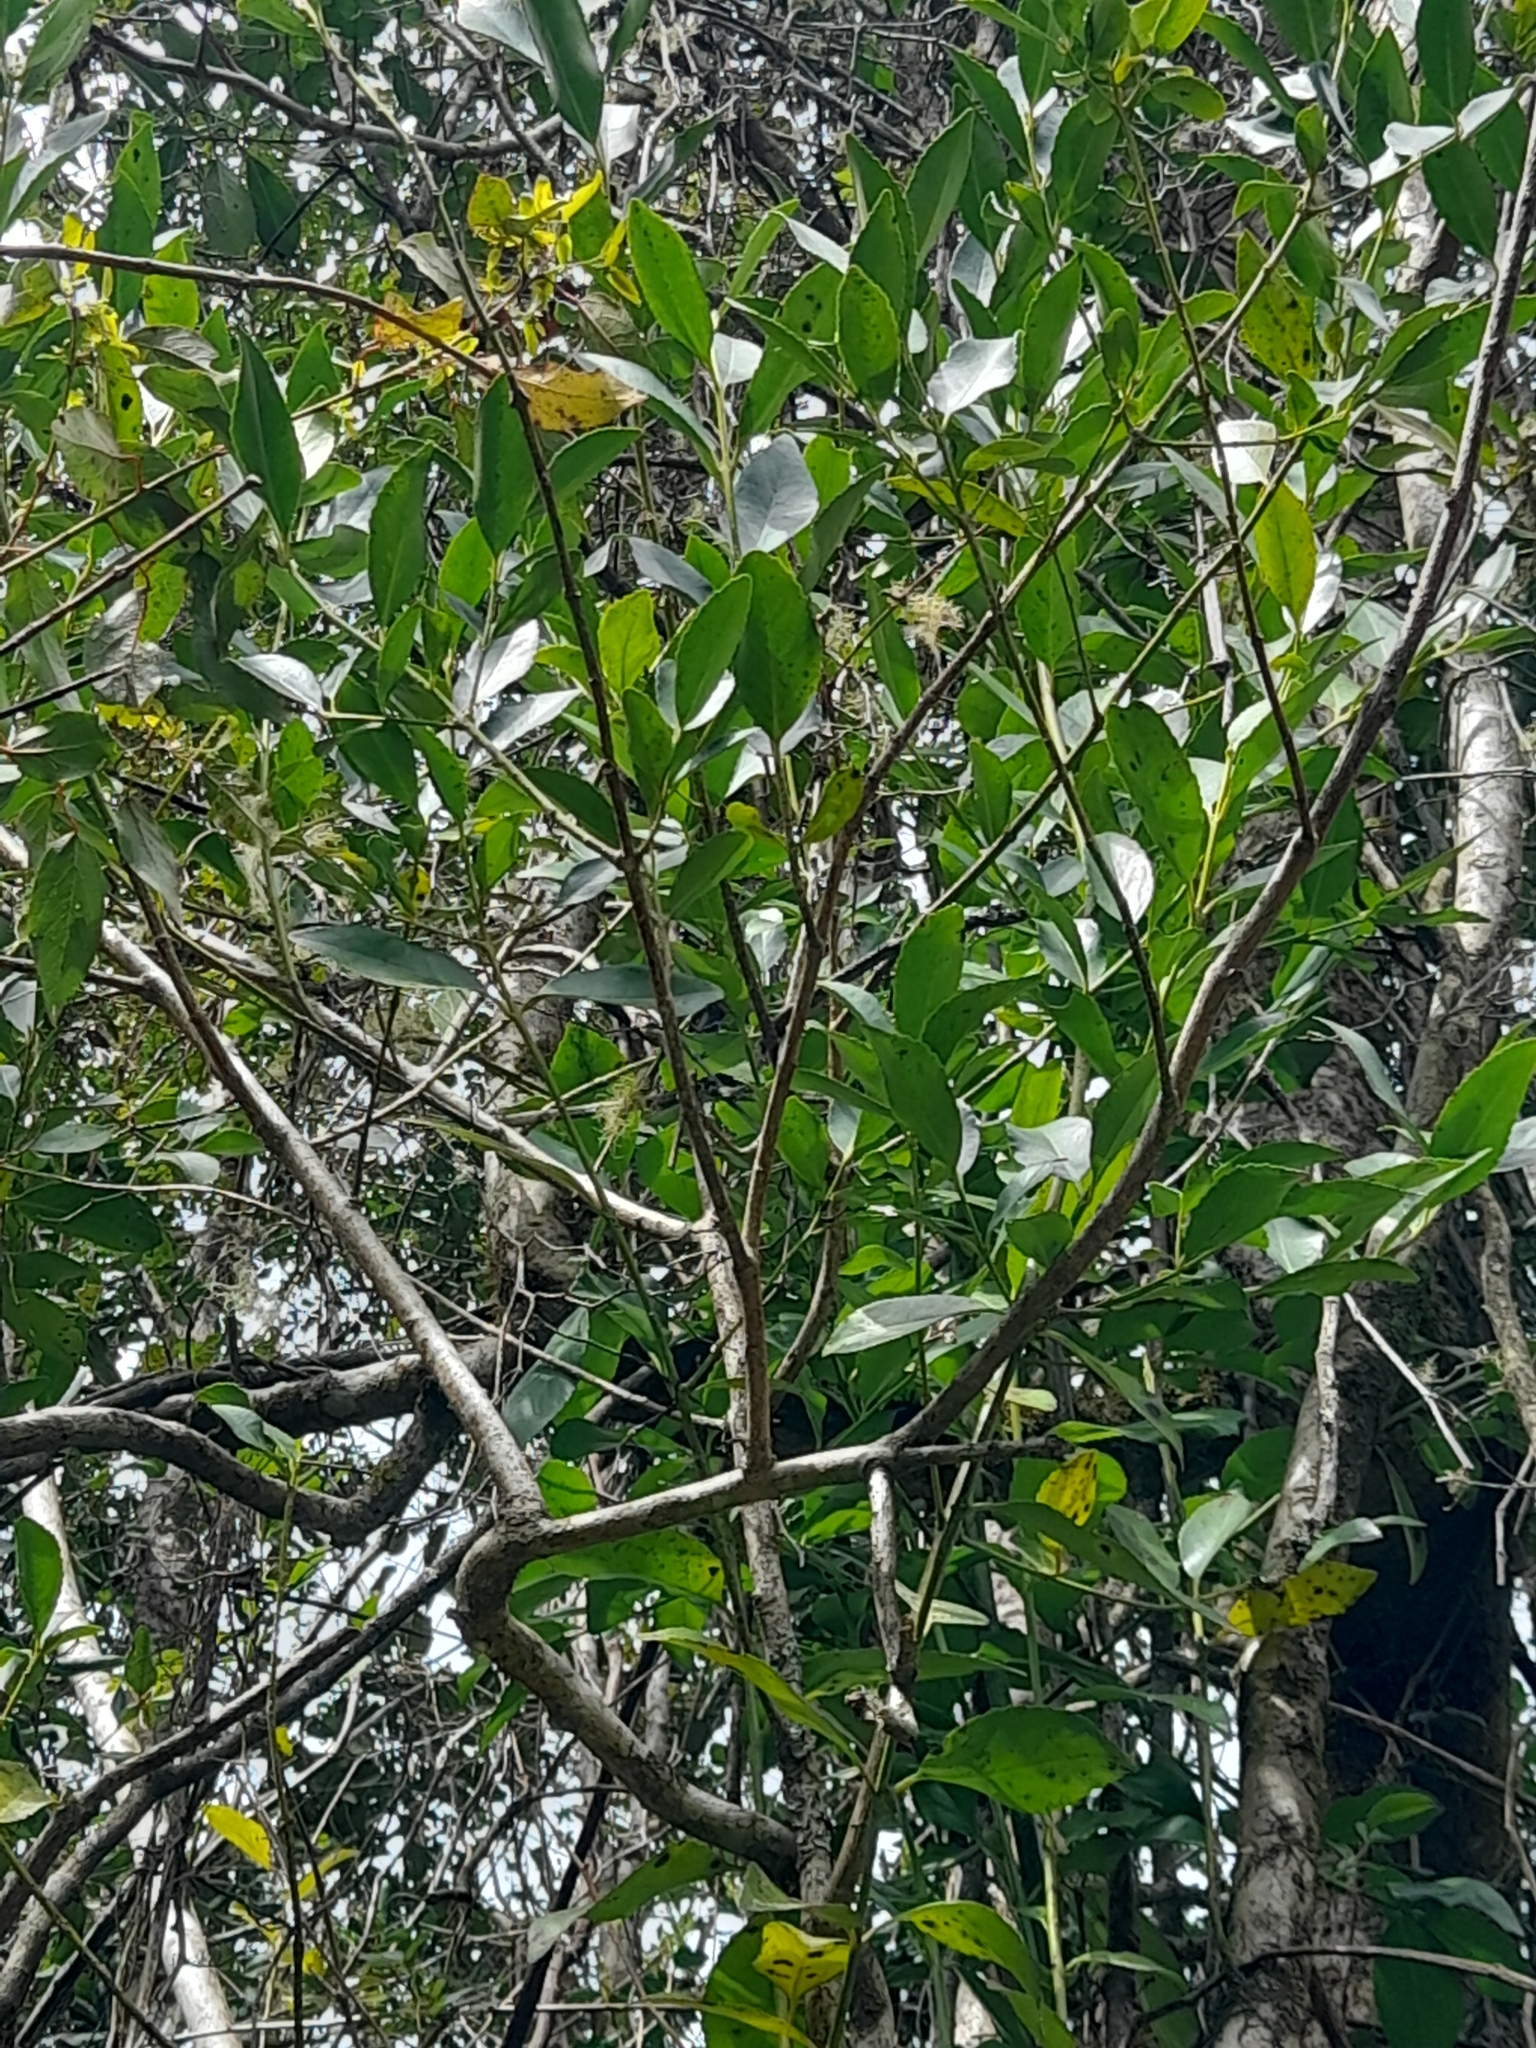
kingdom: Plantae
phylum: Tracheophyta
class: Magnoliopsida
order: Laurales
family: Atherospermataceae
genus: Laurelia
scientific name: Laurelia sempervirens
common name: Chilean laurel
